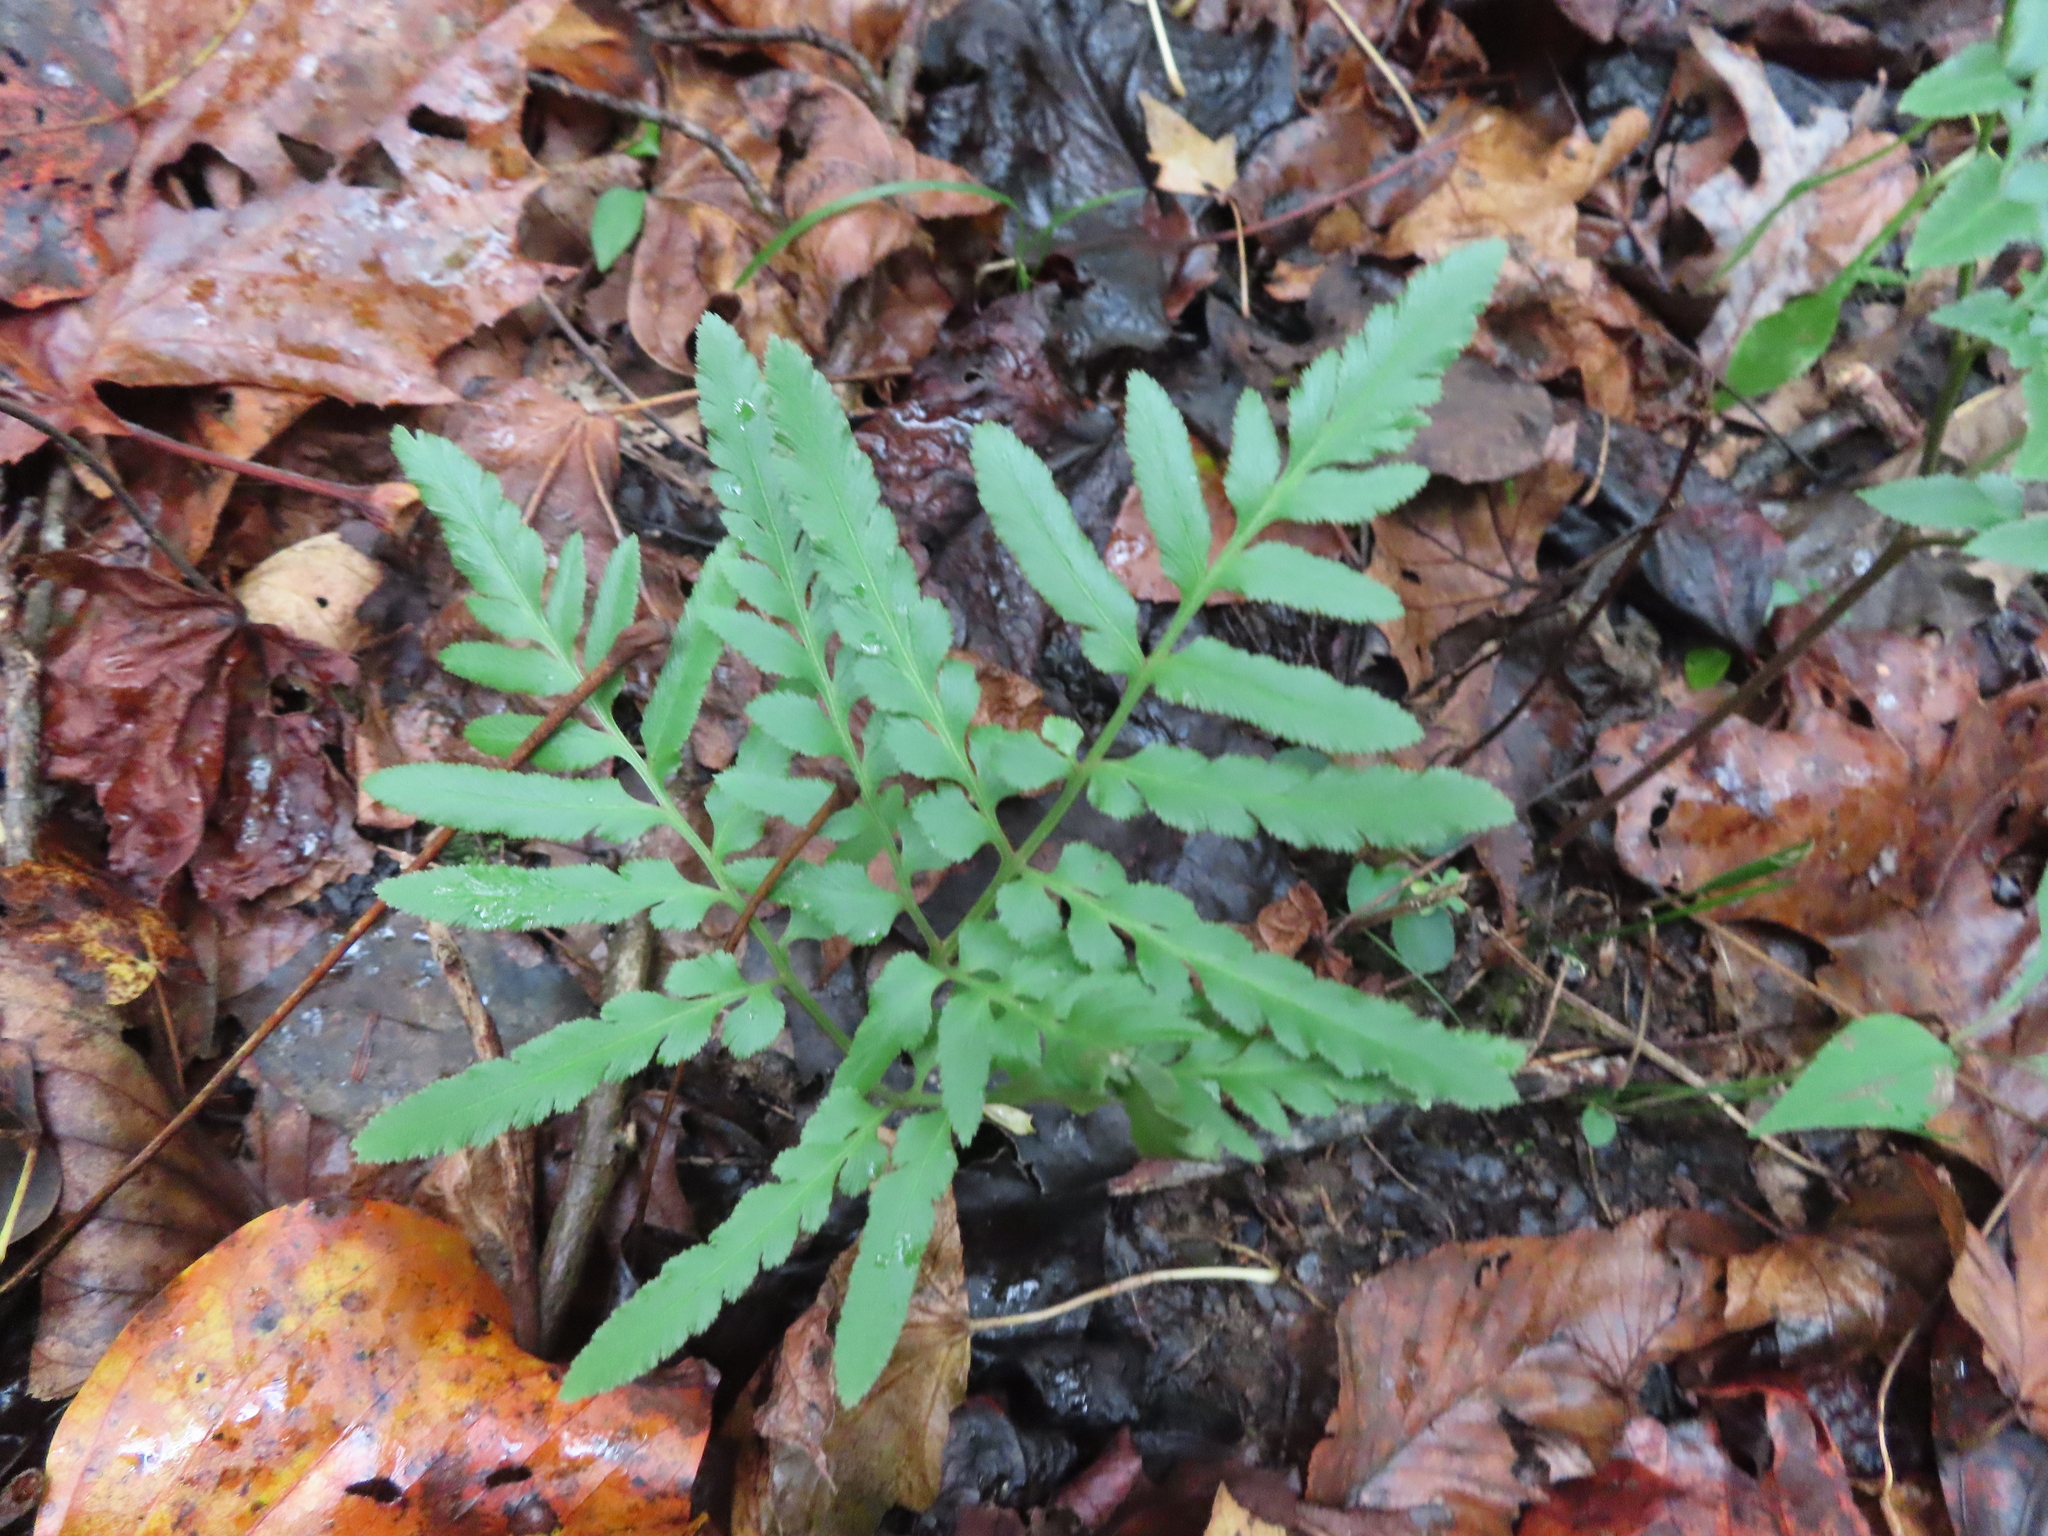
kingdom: Plantae
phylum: Tracheophyta
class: Polypodiopsida
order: Ophioglossales
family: Ophioglossaceae
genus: Sceptridium
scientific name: Sceptridium dissectum
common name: Cut-leaved grapefern
